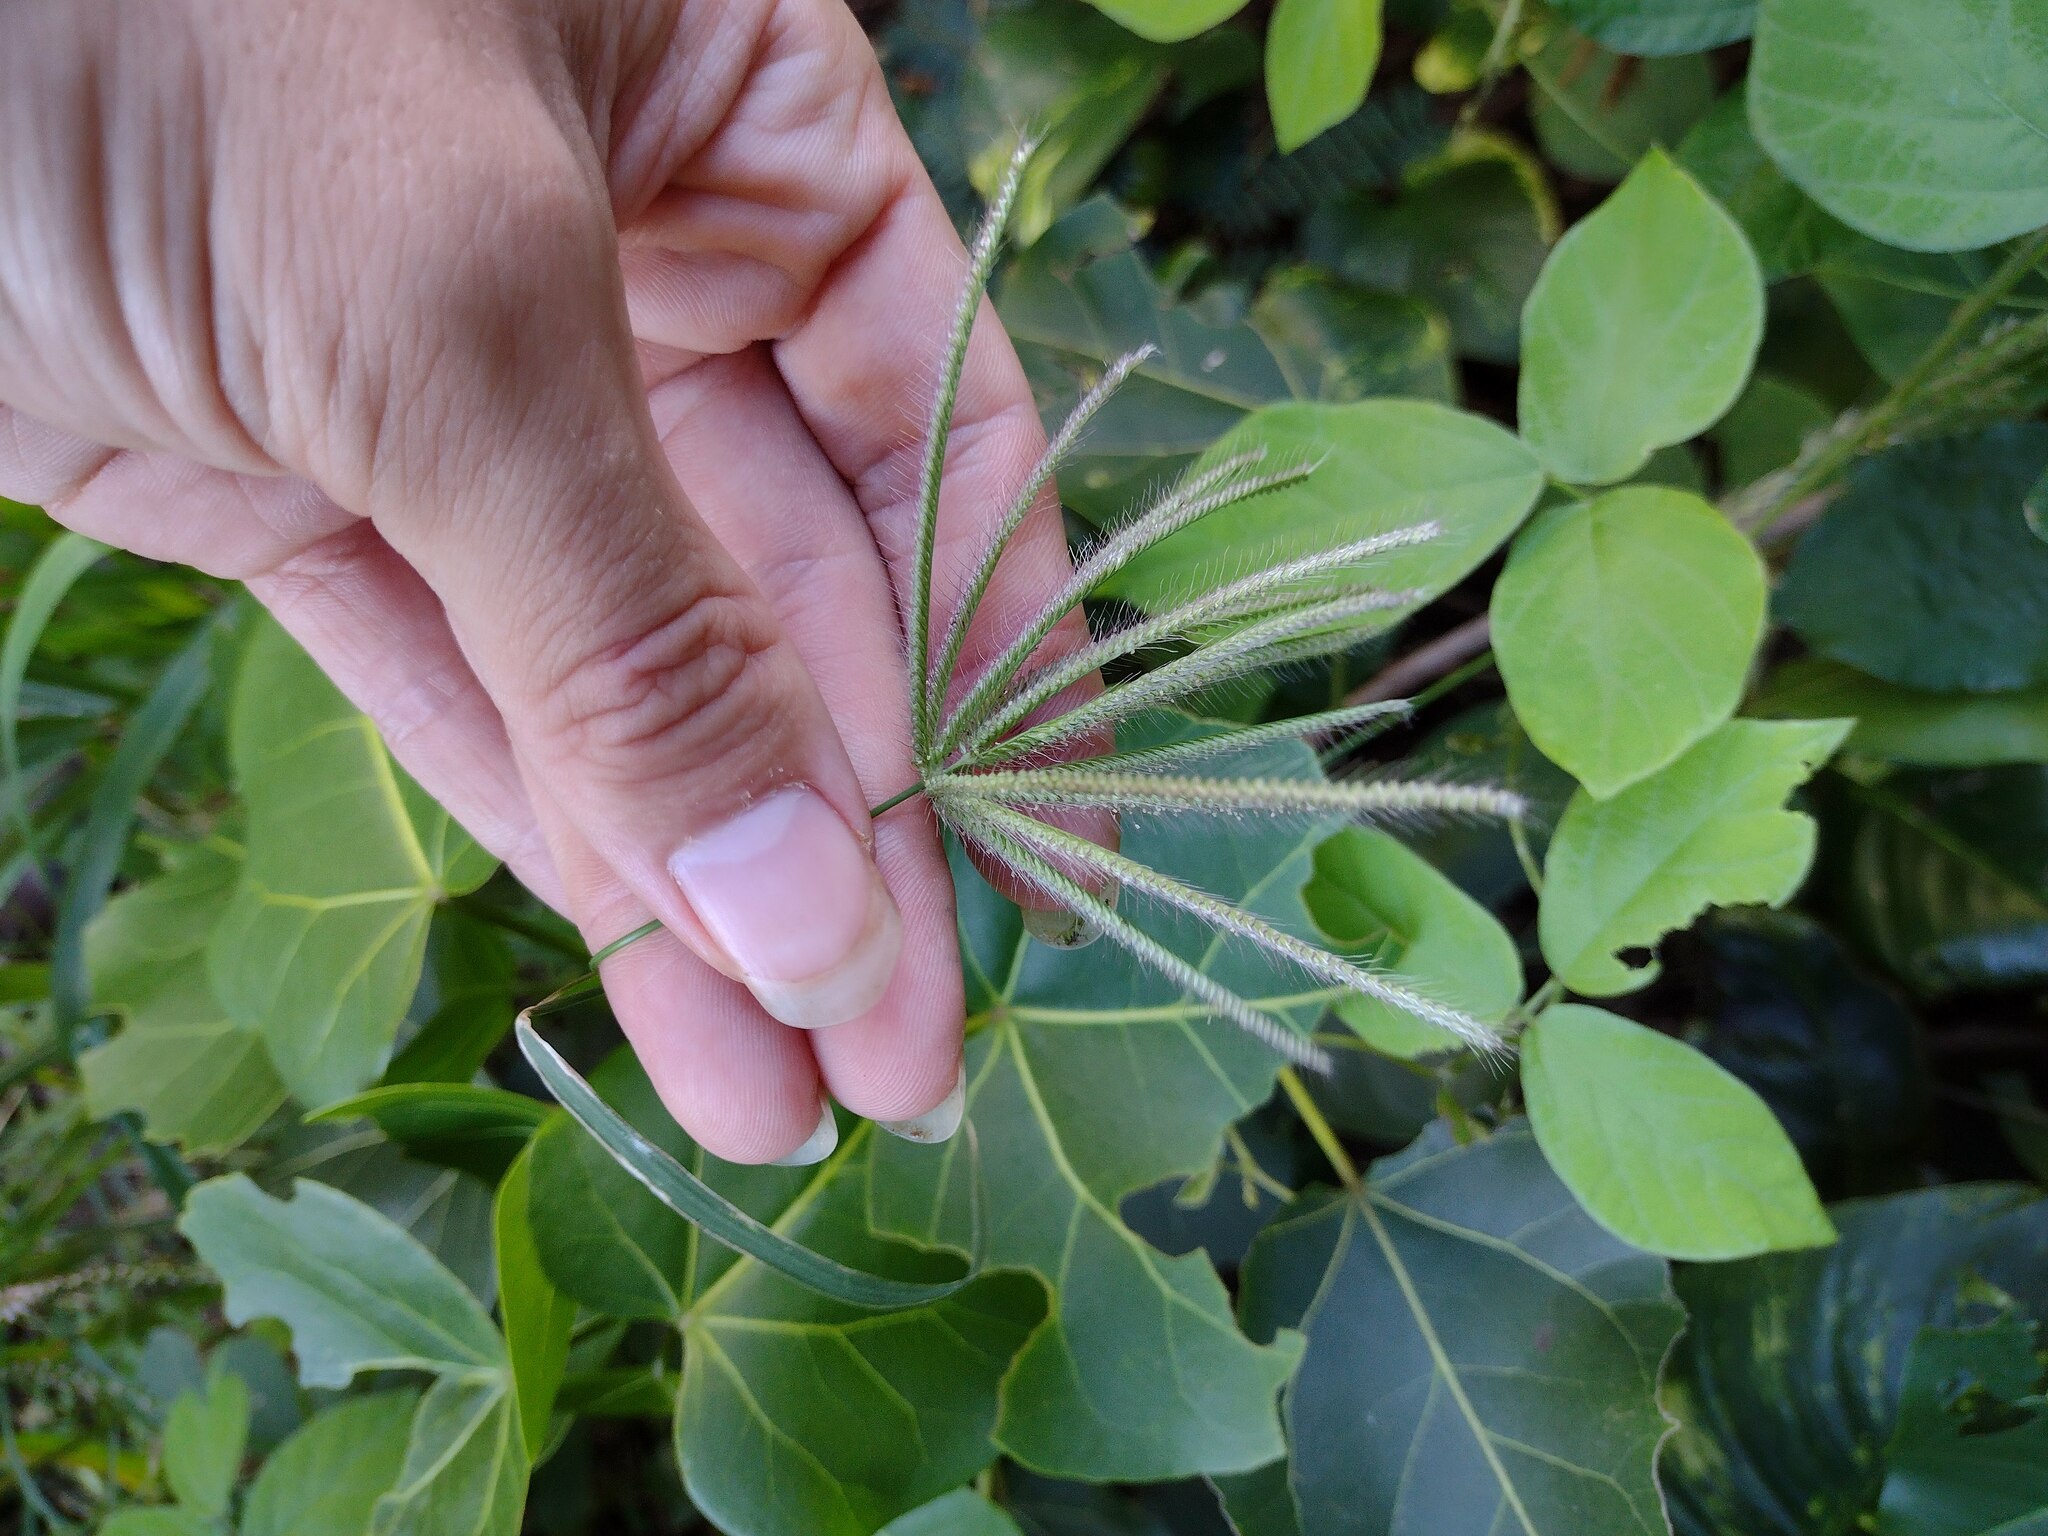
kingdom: Plantae
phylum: Tracheophyta
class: Liliopsida
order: Poales
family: Poaceae
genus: Chloris
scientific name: Chloris barbata
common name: Swollen fingergrass
